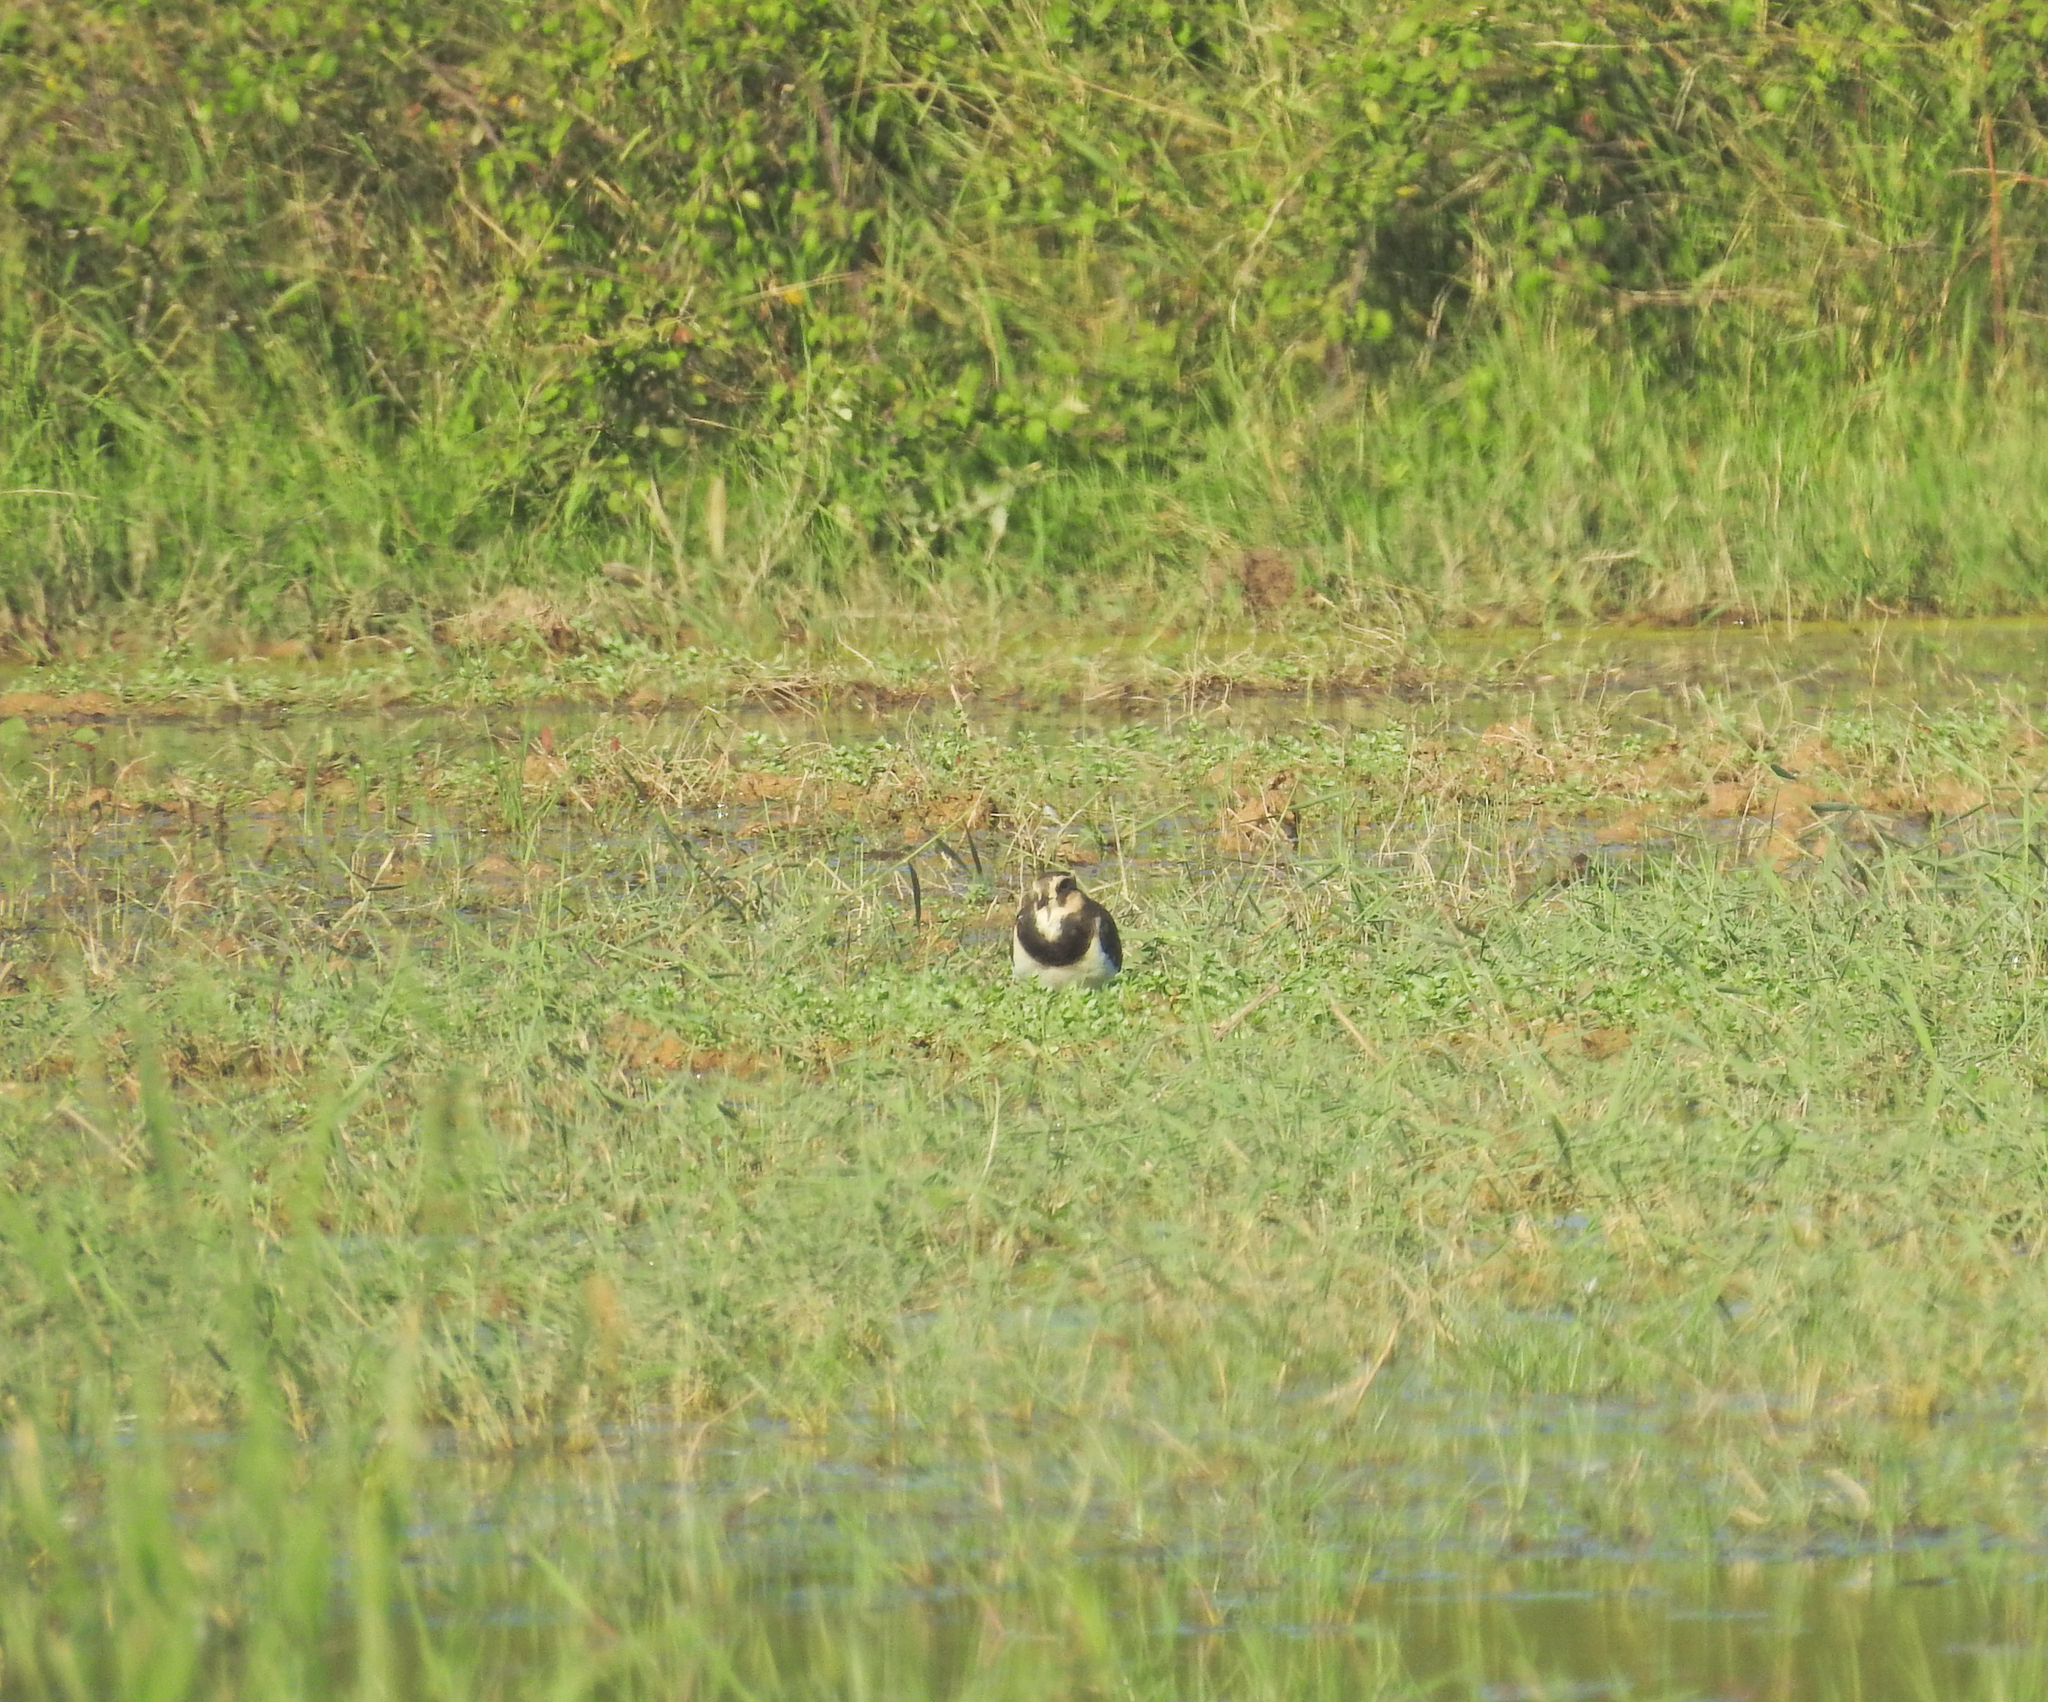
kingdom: Animalia
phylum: Chordata
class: Aves
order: Charadriiformes
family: Charadriidae
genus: Vanellus
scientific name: Vanellus vanellus
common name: Northern lapwing
